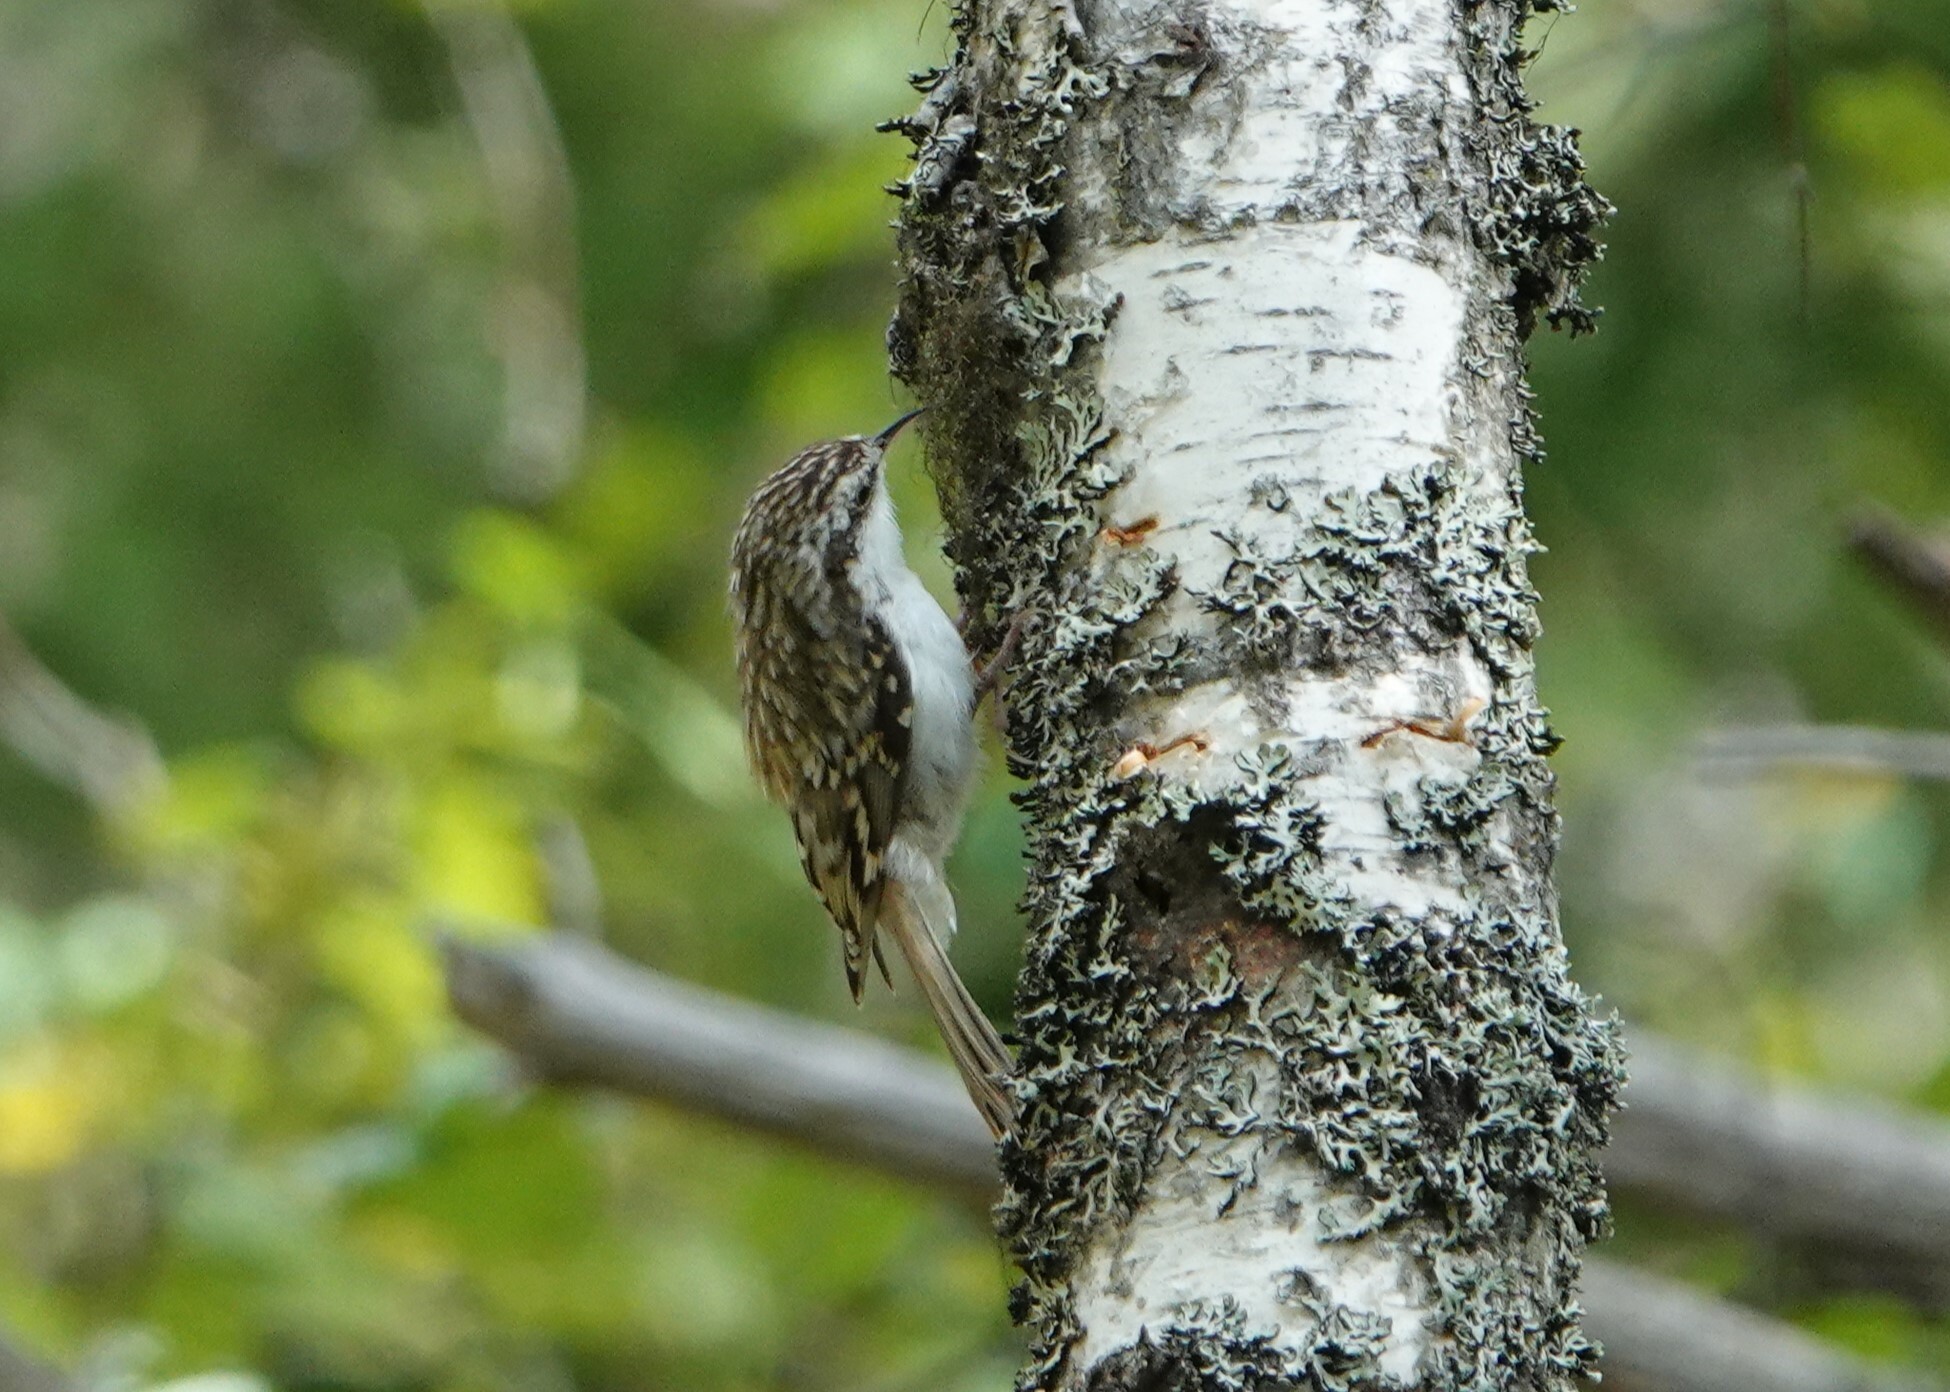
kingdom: Animalia
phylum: Chordata
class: Aves
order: Passeriformes
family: Certhiidae
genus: Certhia
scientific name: Certhia familiaris
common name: Eurasian treecreeper
